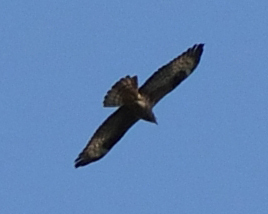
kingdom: Animalia
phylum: Chordata
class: Aves
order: Accipitriformes
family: Accipitridae
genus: Pernis
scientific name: Pernis apivorus
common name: European honey buzzard
